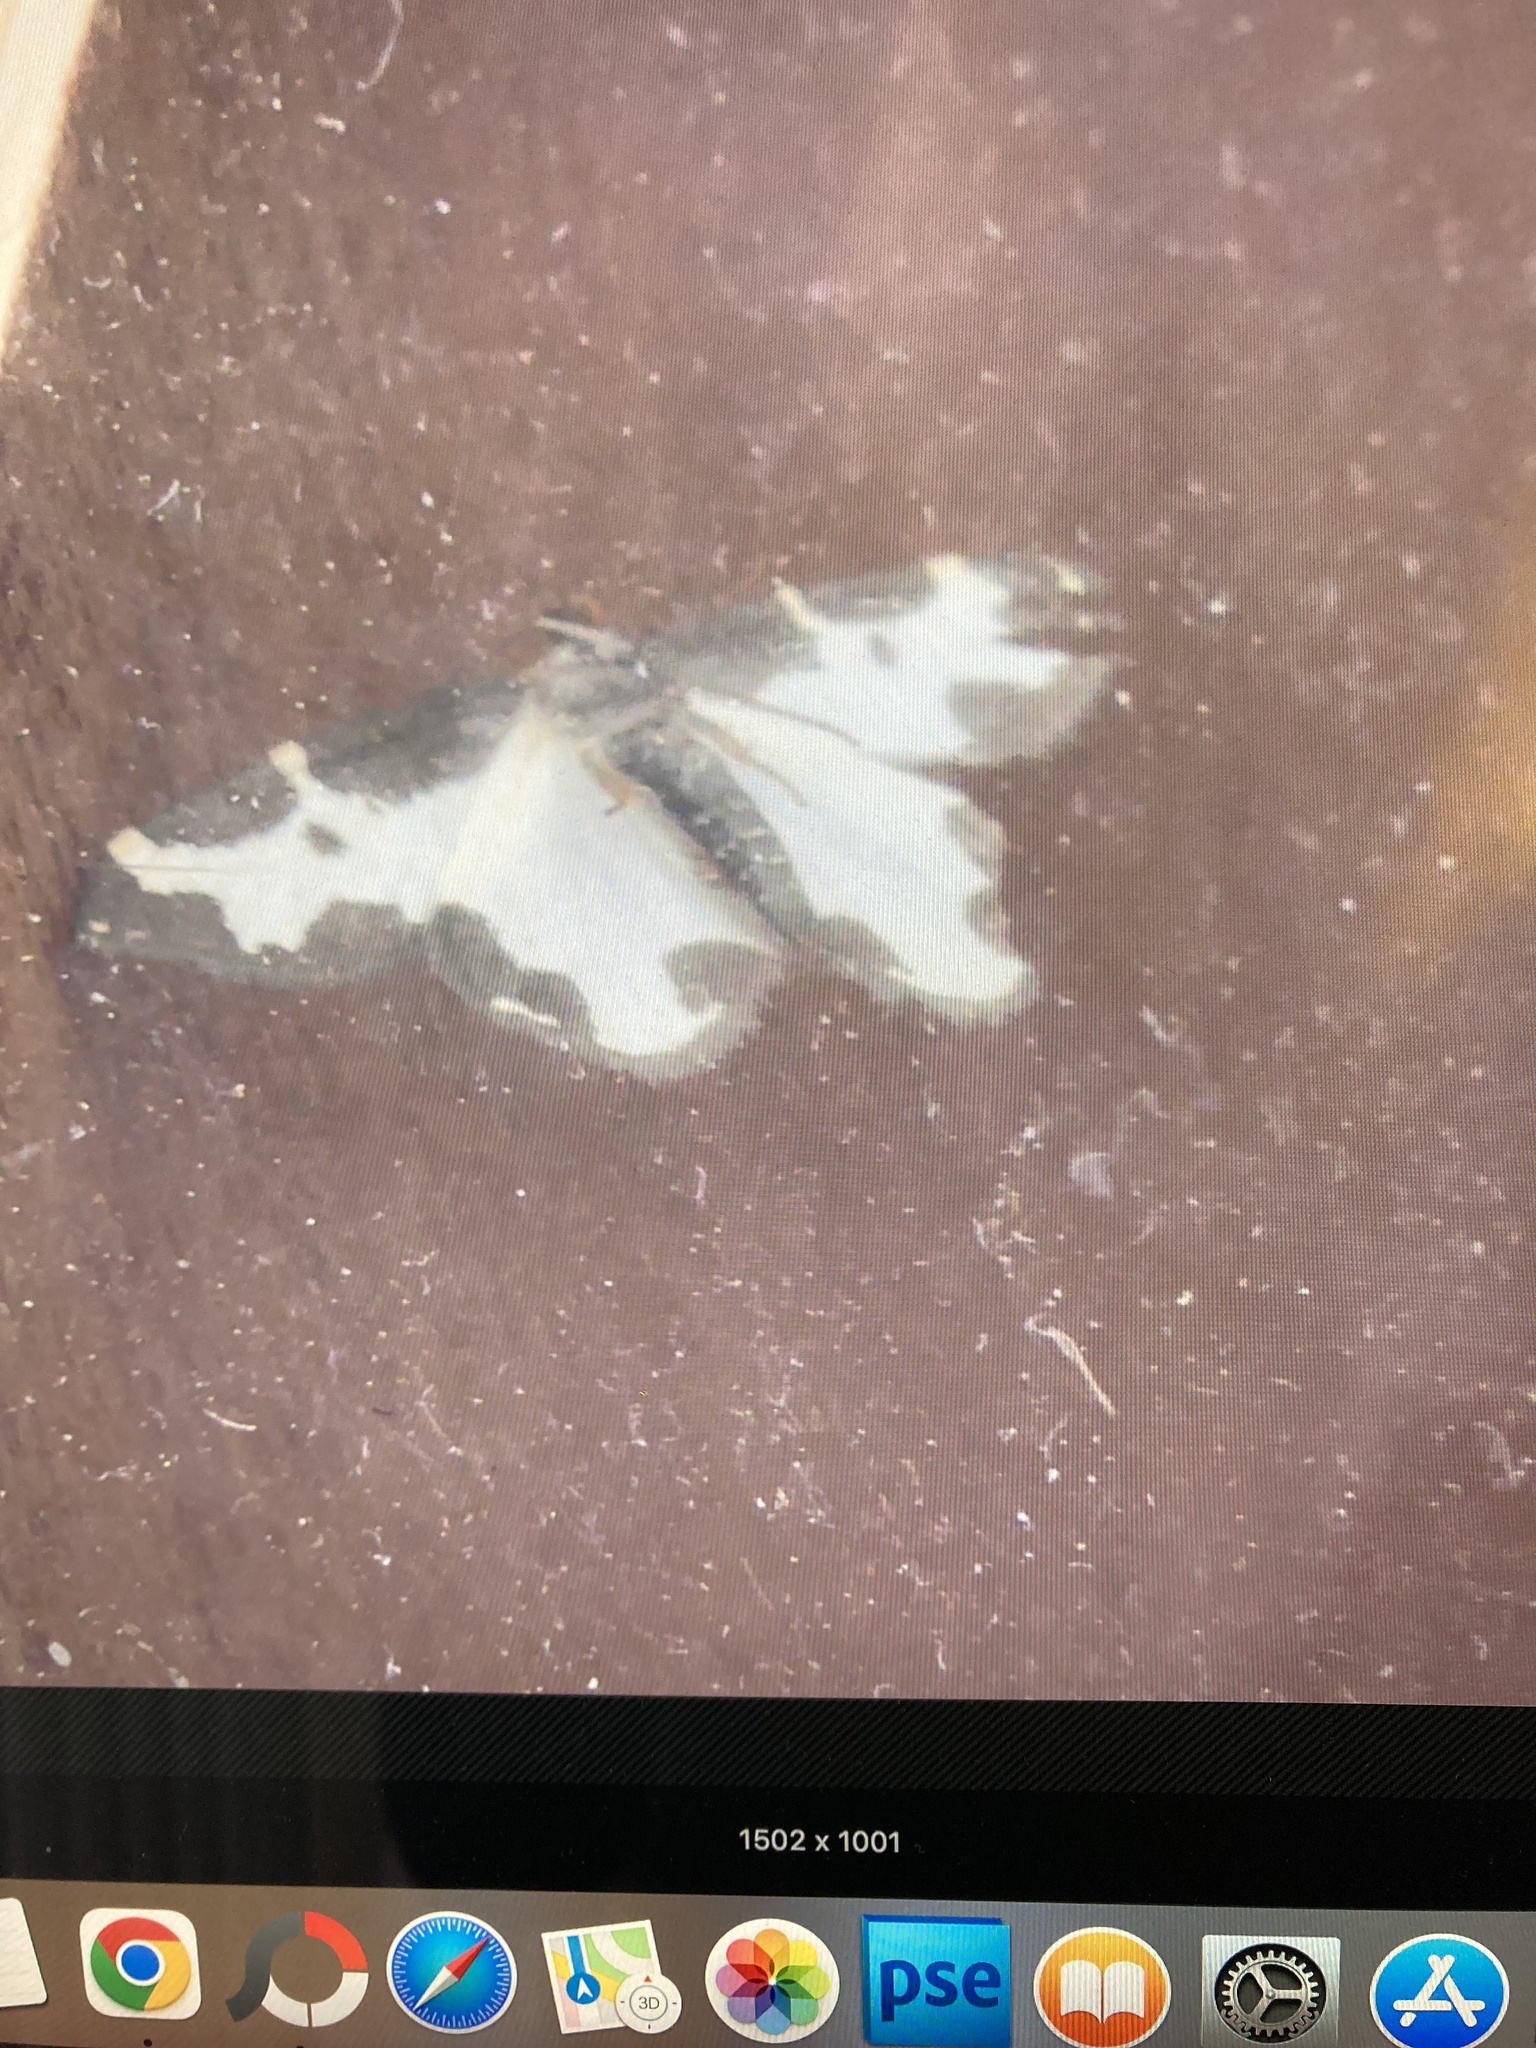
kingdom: Animalia
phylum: Arthropoda
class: Insecta
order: Lepidoptera
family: Geometridae
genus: Lomaspilis
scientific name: Lomaspilis marginata
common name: Clouded border
